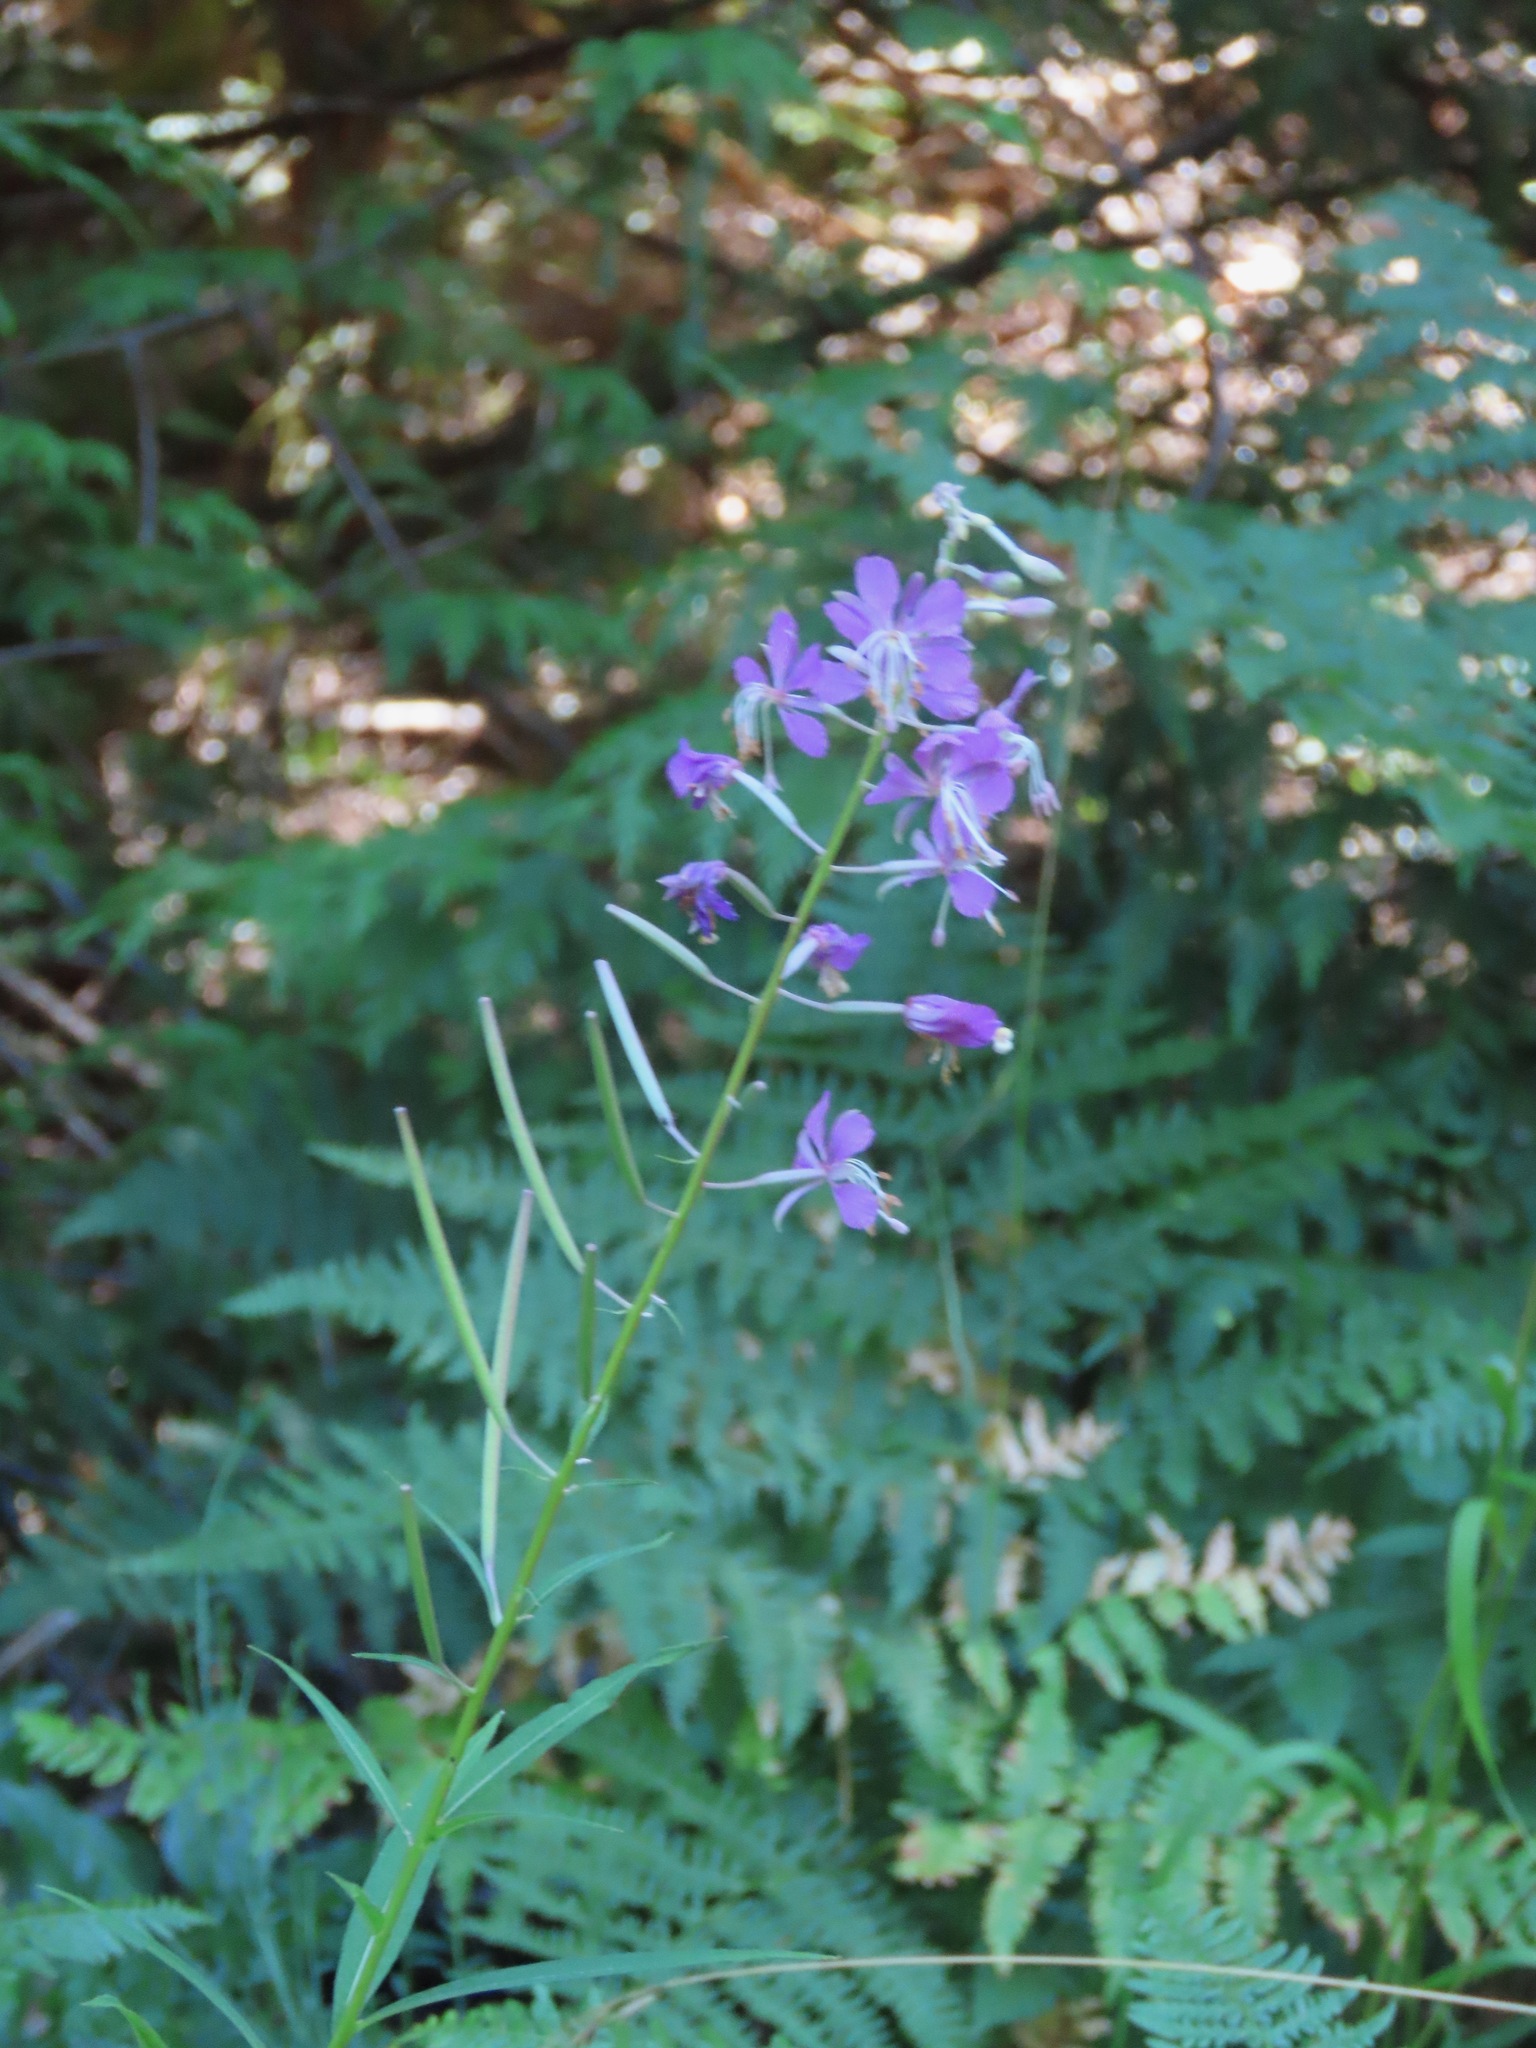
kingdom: Plantae
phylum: Tracheophyta
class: Magnoliopsida
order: Myrtales
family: Onagraceae
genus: Chamaenerion
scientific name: Chamaenerion angustifolium
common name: Fireweed
